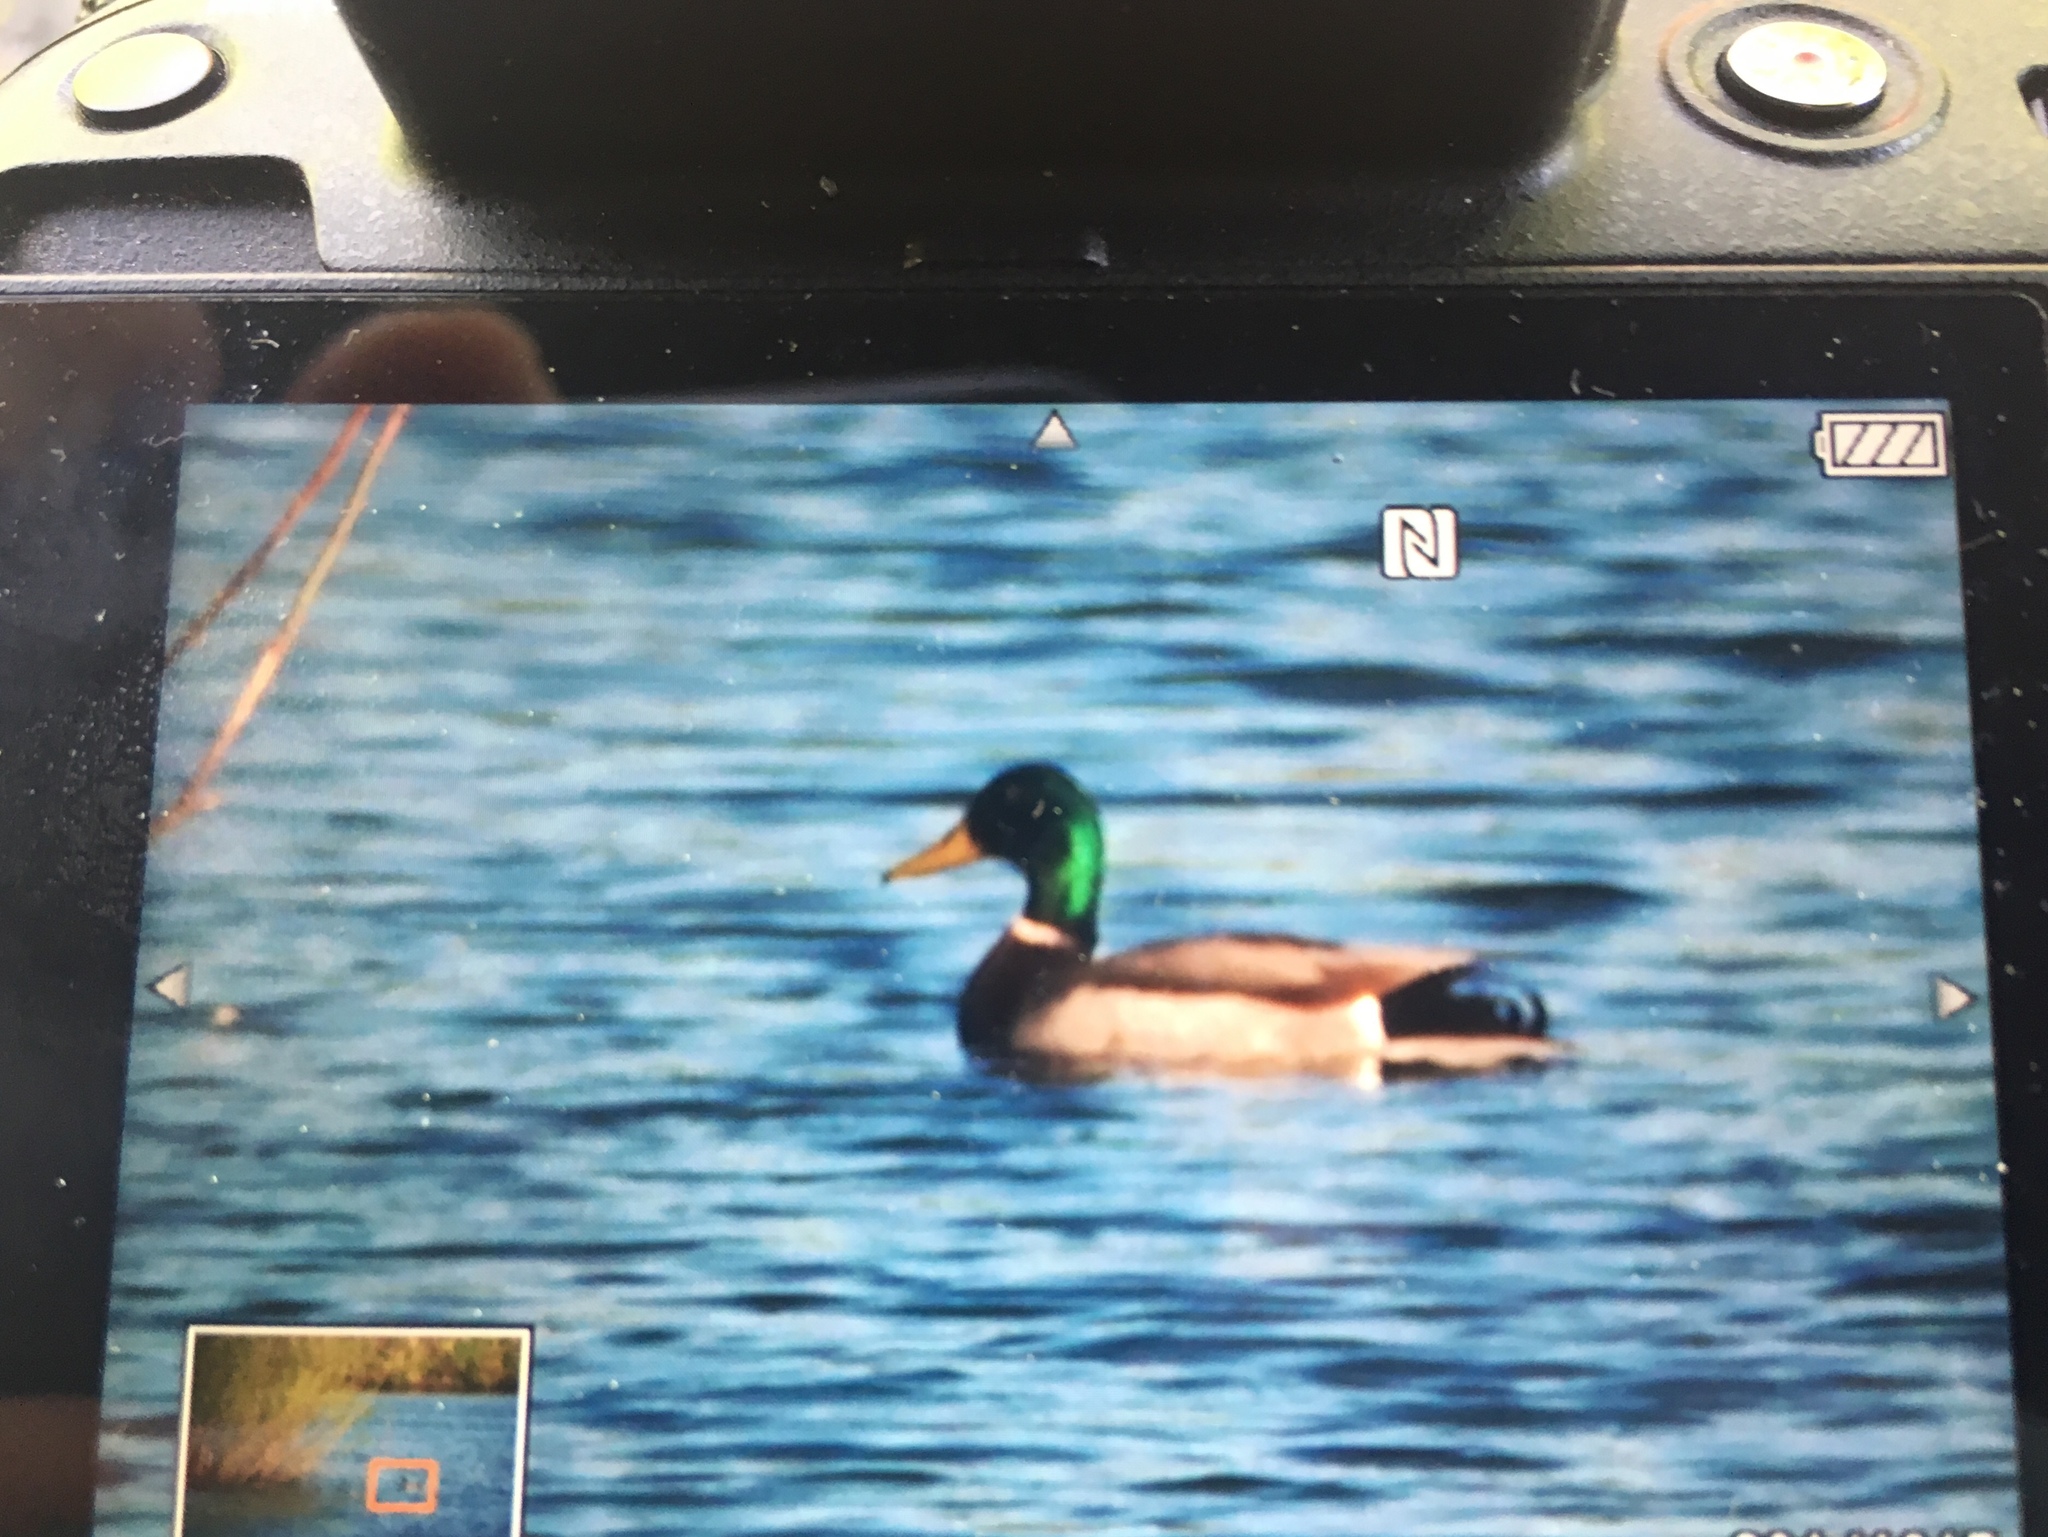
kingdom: Animalia
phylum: Chordata
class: Aves
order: Anseriformes
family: Anatidae
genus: Anas
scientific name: Anas platyrhynchos
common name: Mallard
